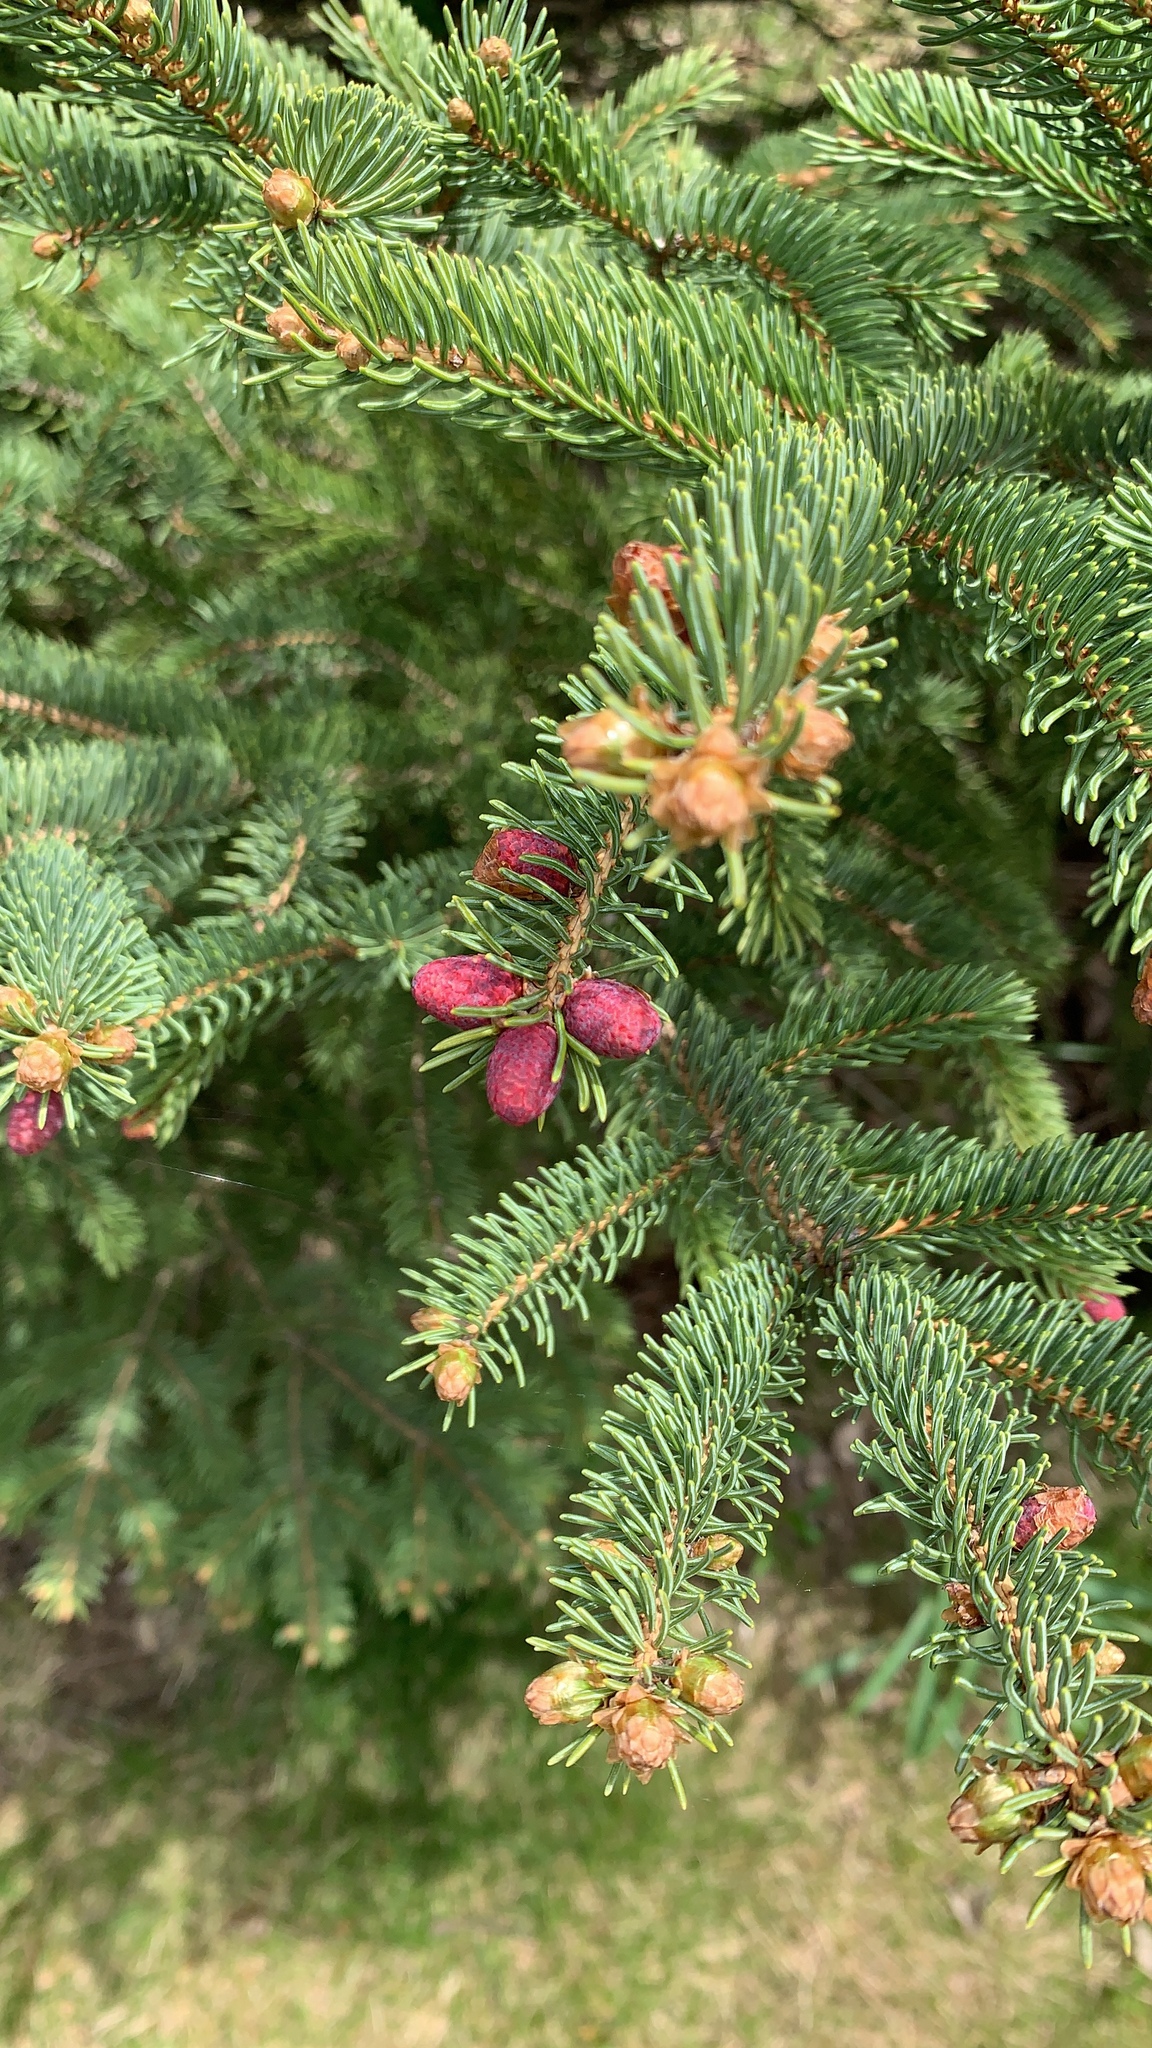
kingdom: Plantae
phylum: Tracheophyta
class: Pinopsida
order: Pinales
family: Pinaceae
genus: Picea
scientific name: Picea glauca
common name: White spruce
